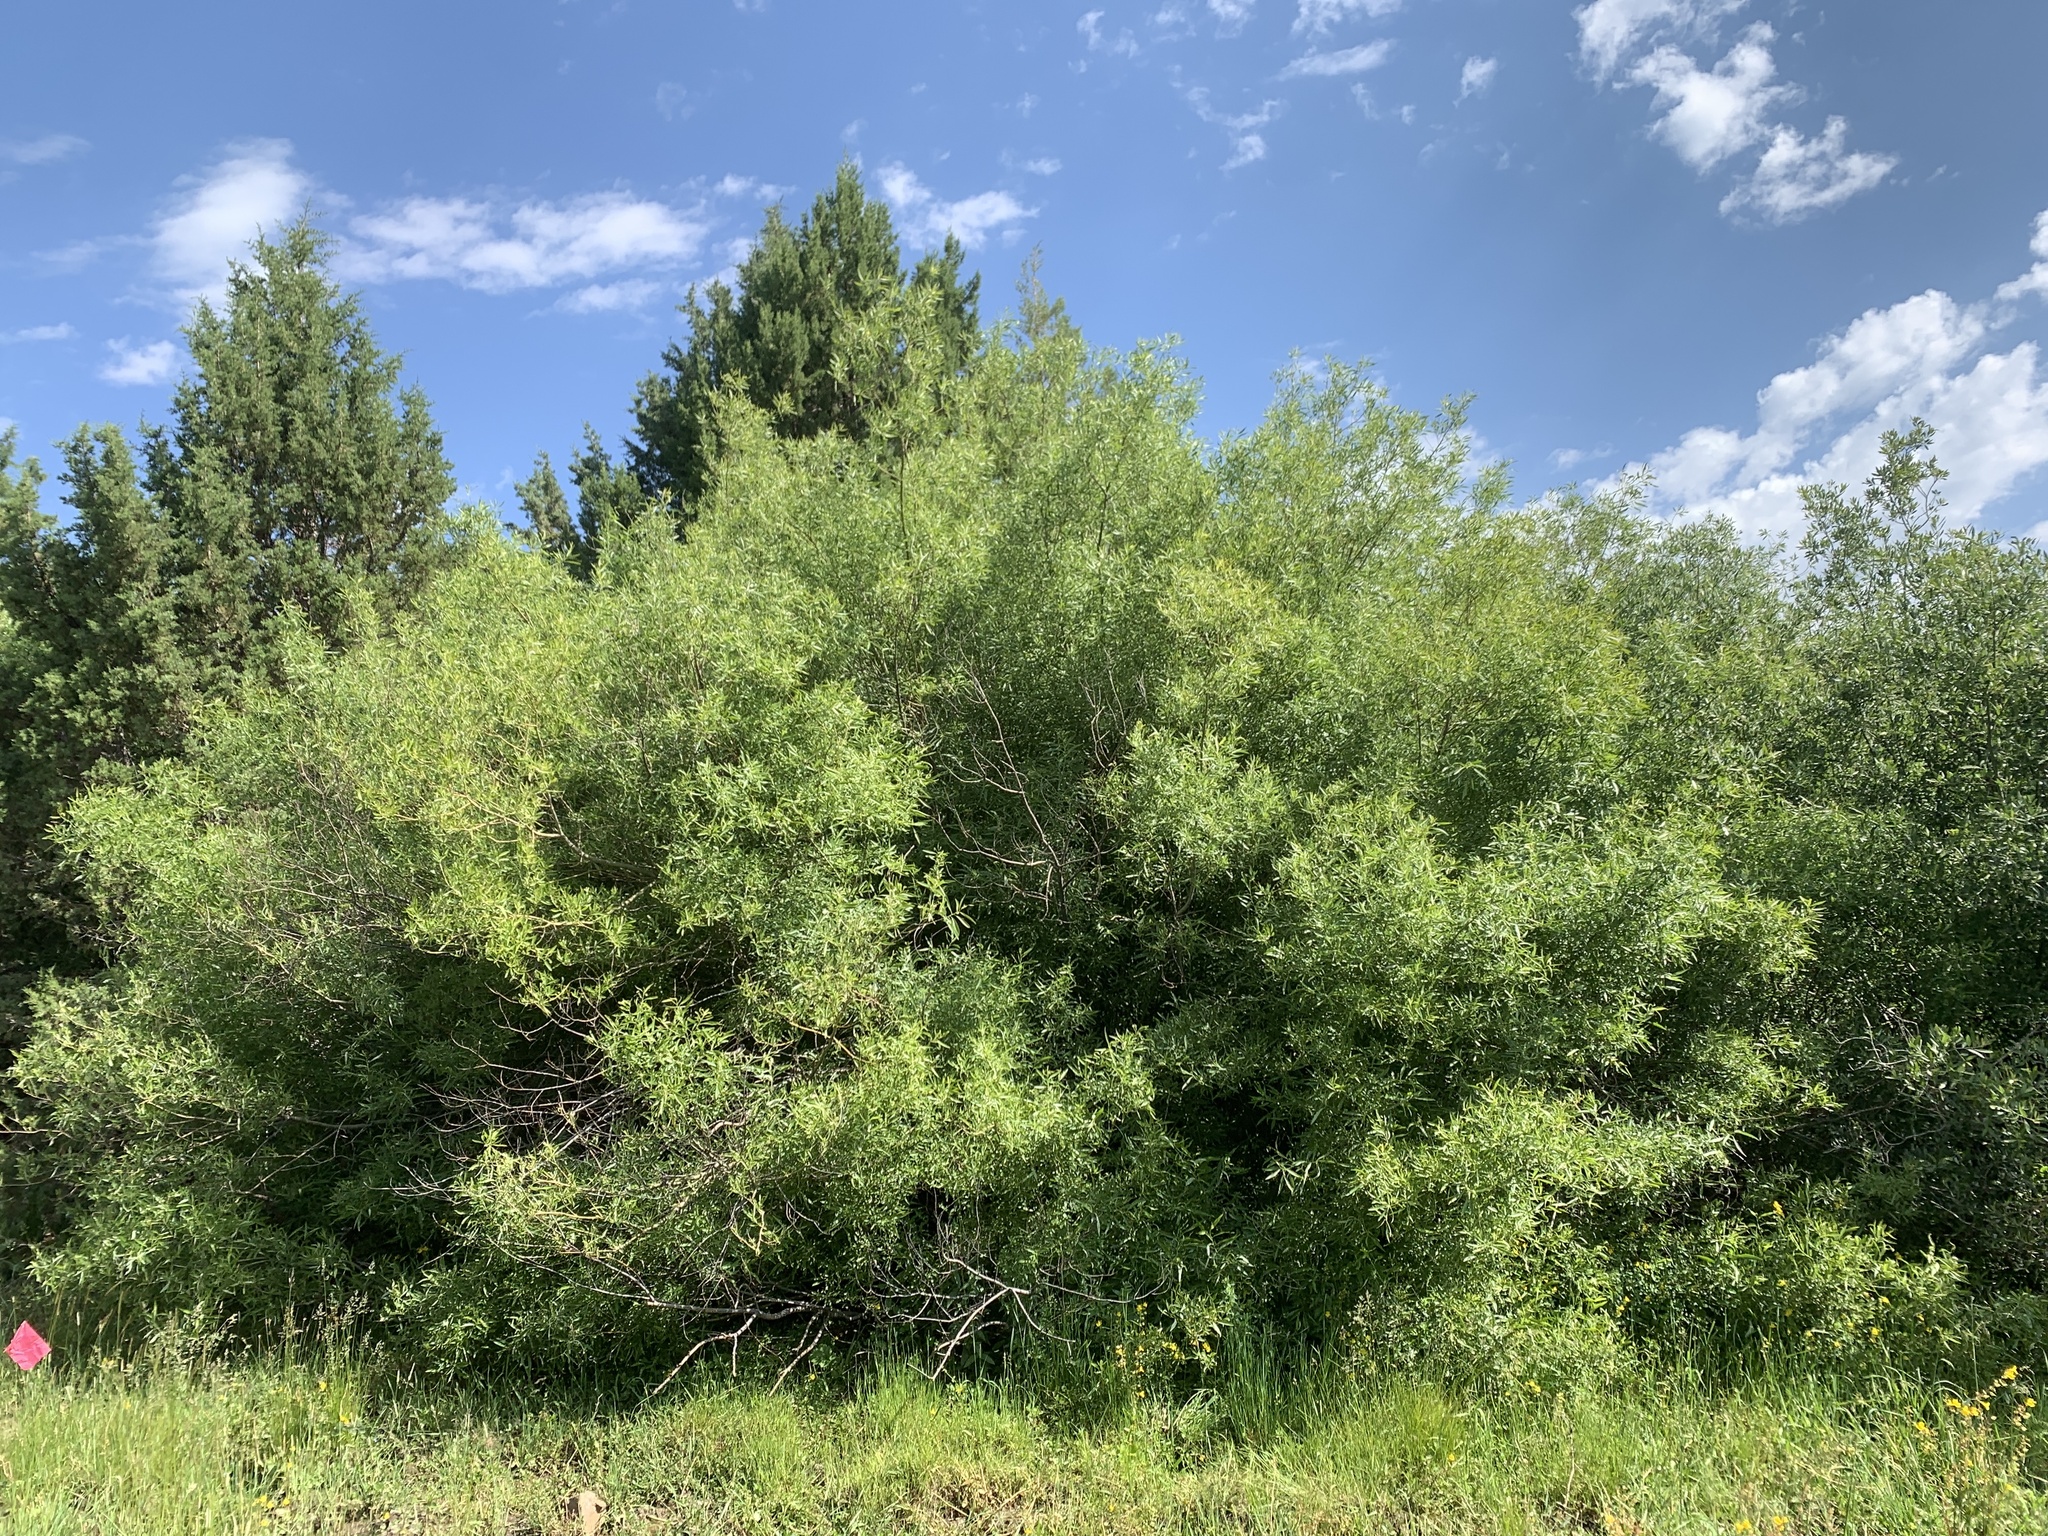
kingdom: Plantae
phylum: Tracheophyta
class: Magnoliopsida
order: Malpighiales
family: Salicaceae
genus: Salix
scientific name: Salix lemmonii
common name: Lemmon's willow
